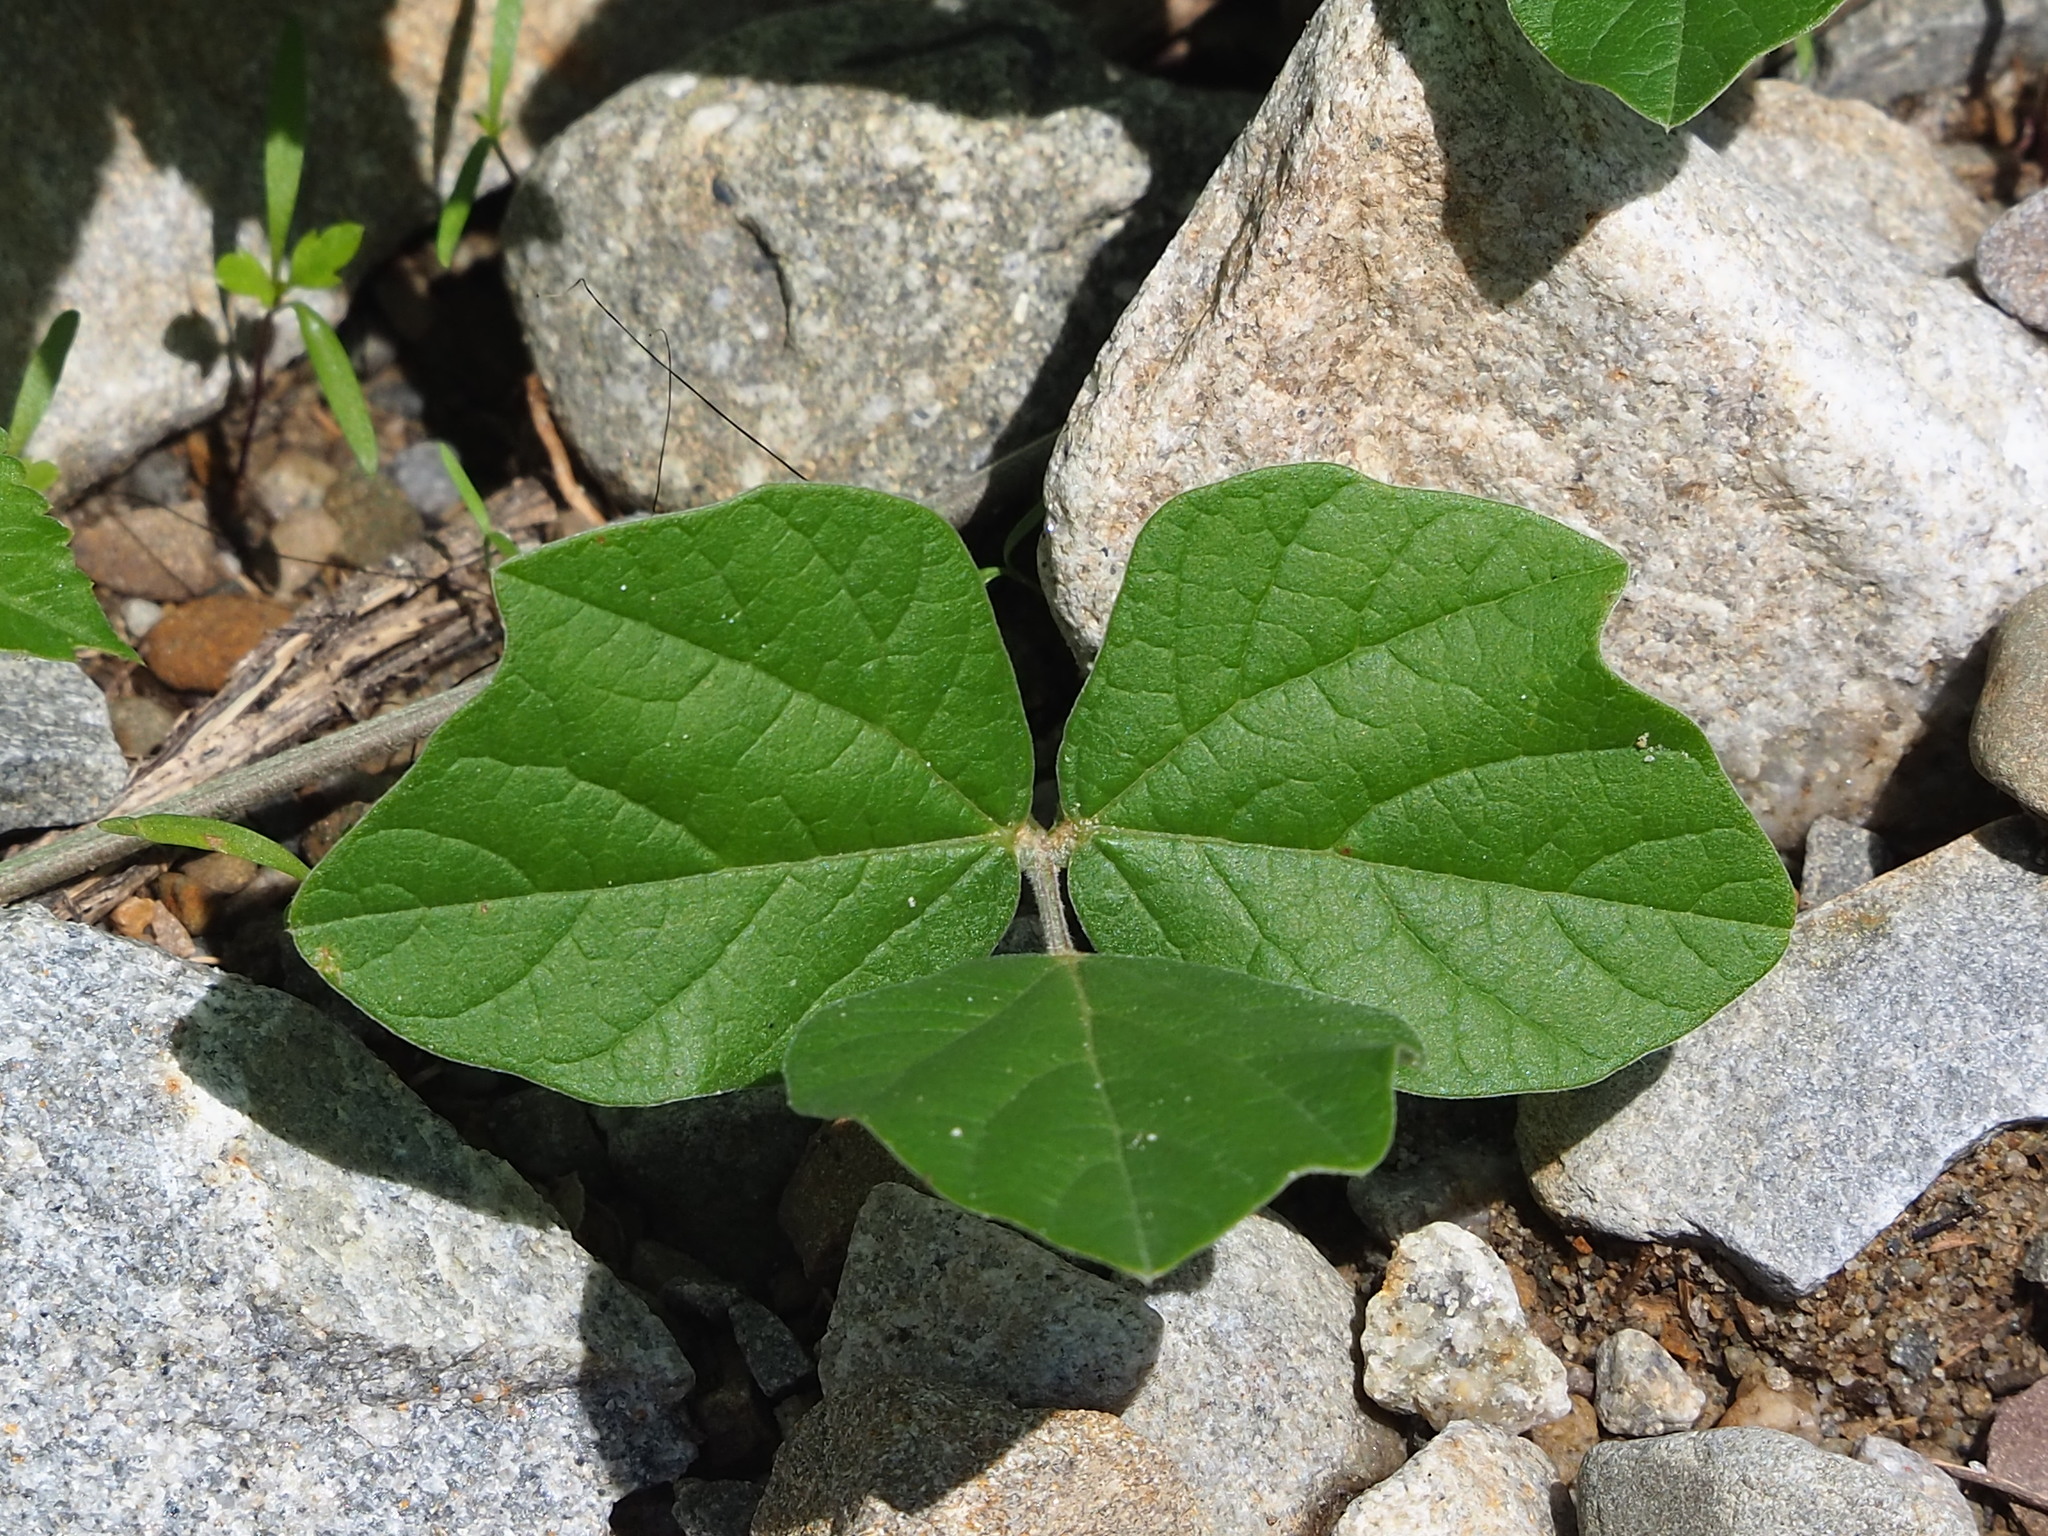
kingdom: Plantae
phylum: Tracheophyta
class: Magnoliopsida
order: Fabales
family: Fabaceae
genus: Macroptilium
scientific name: Macroptilium atropurpureum
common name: Purple bushbean
